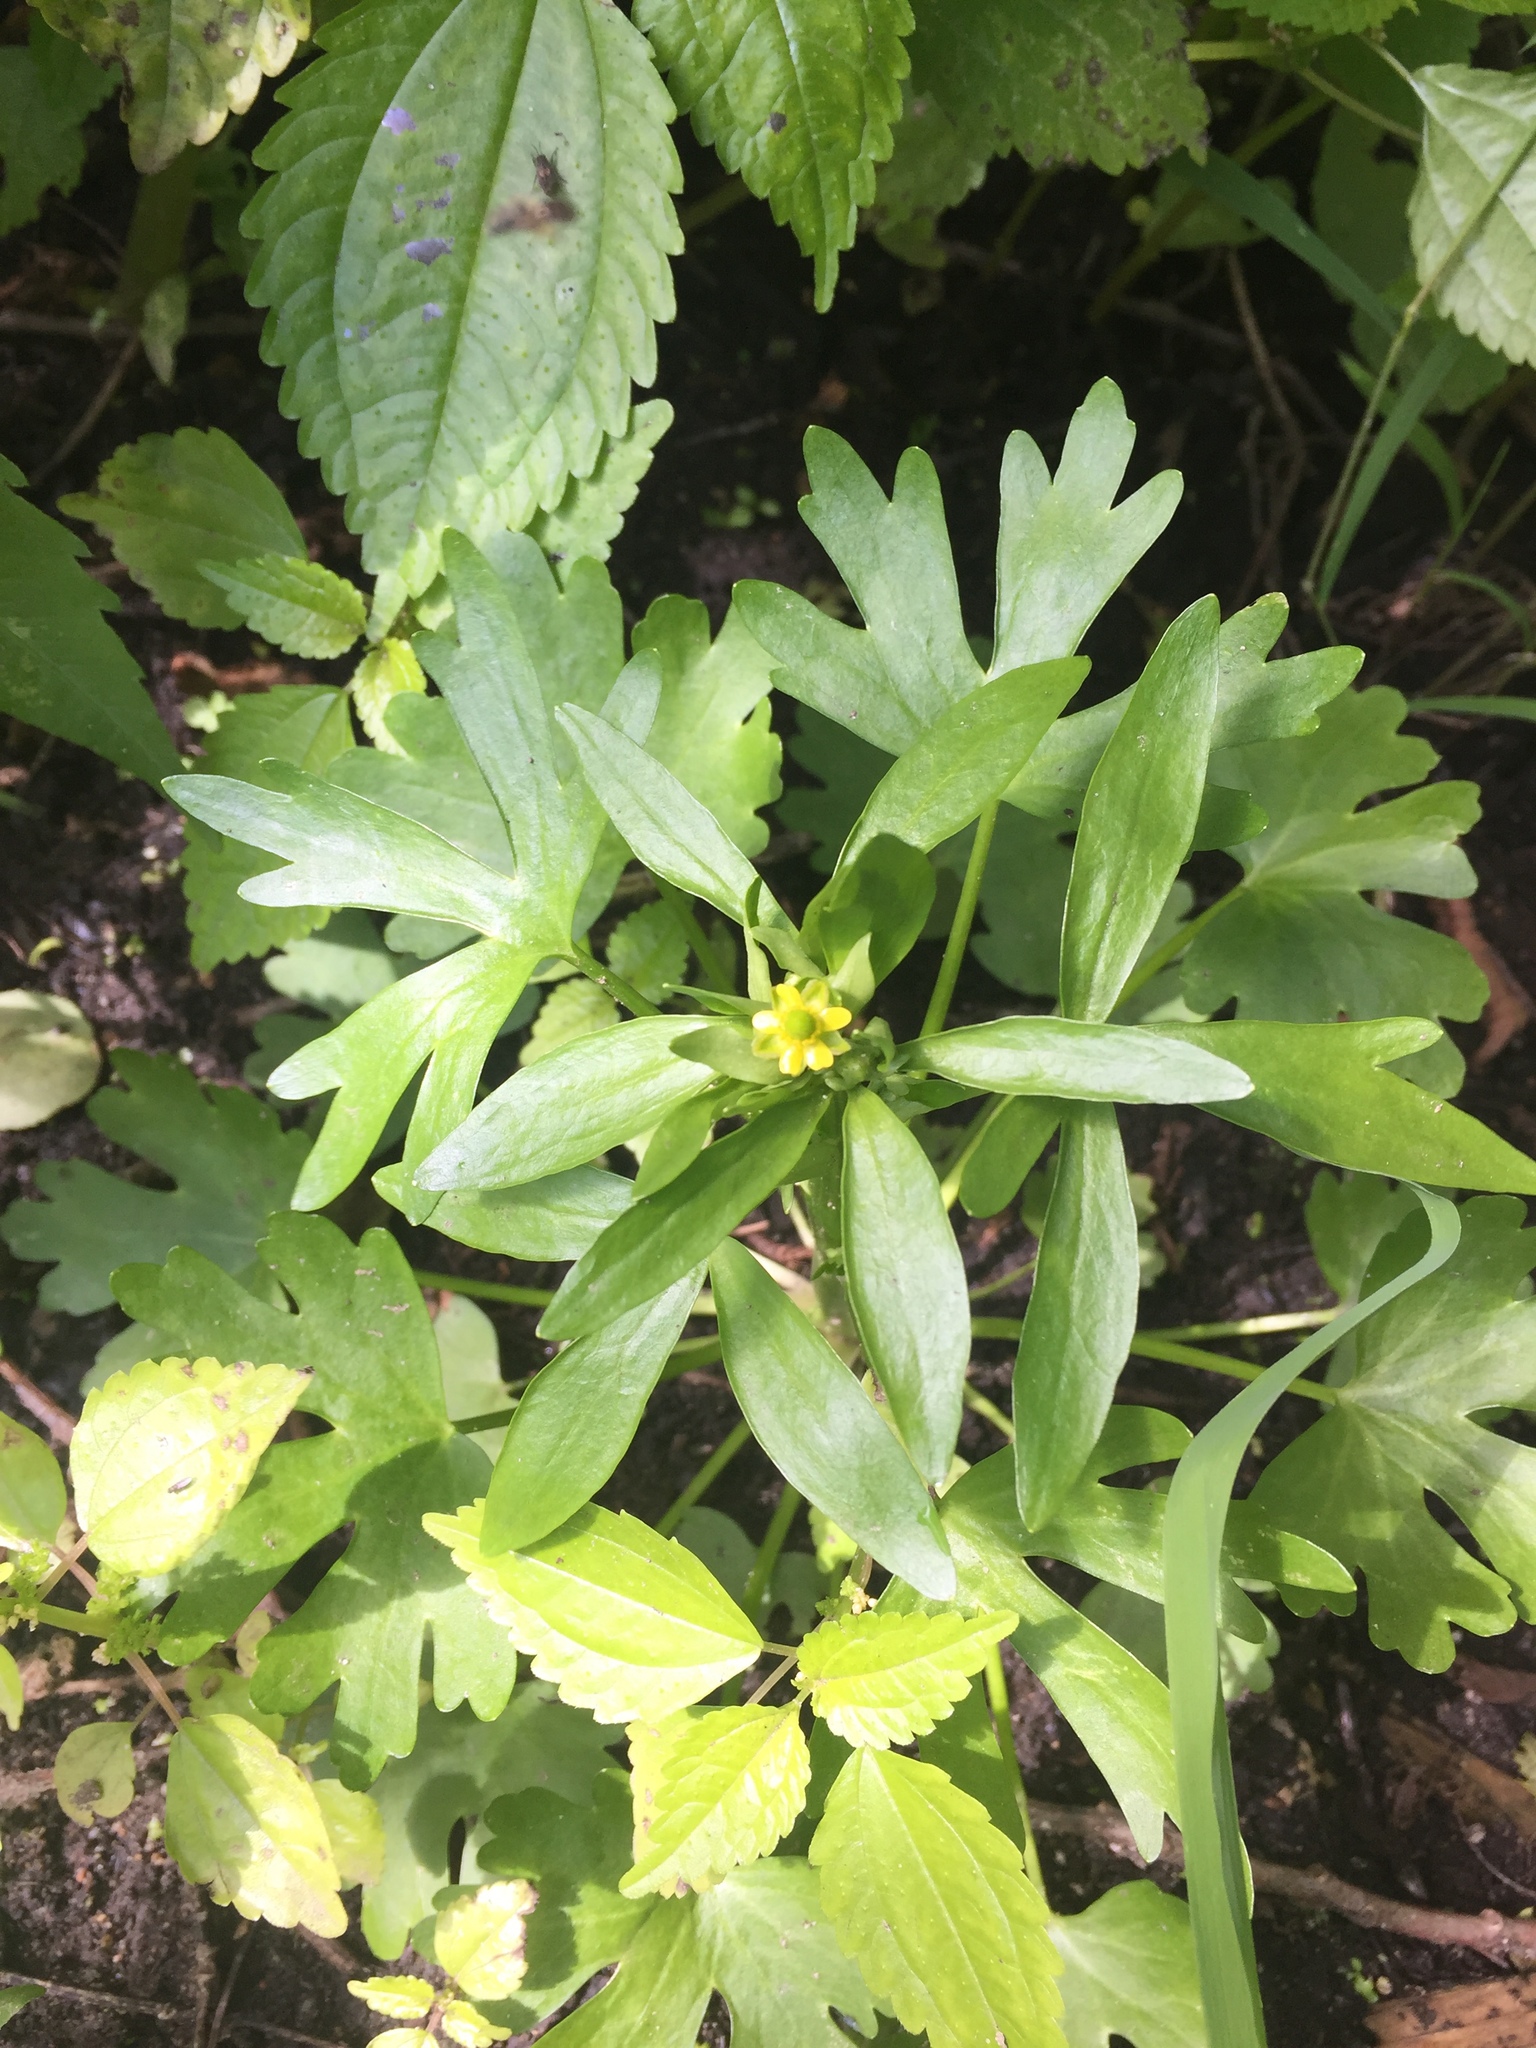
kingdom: Plantae
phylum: Tracheophyta
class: Magnoliopsida
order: Ranunculales
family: Ranunculaceae
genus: Ranunculus
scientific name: Ranunculus sceleratus
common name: Celery-leaved buttercup
